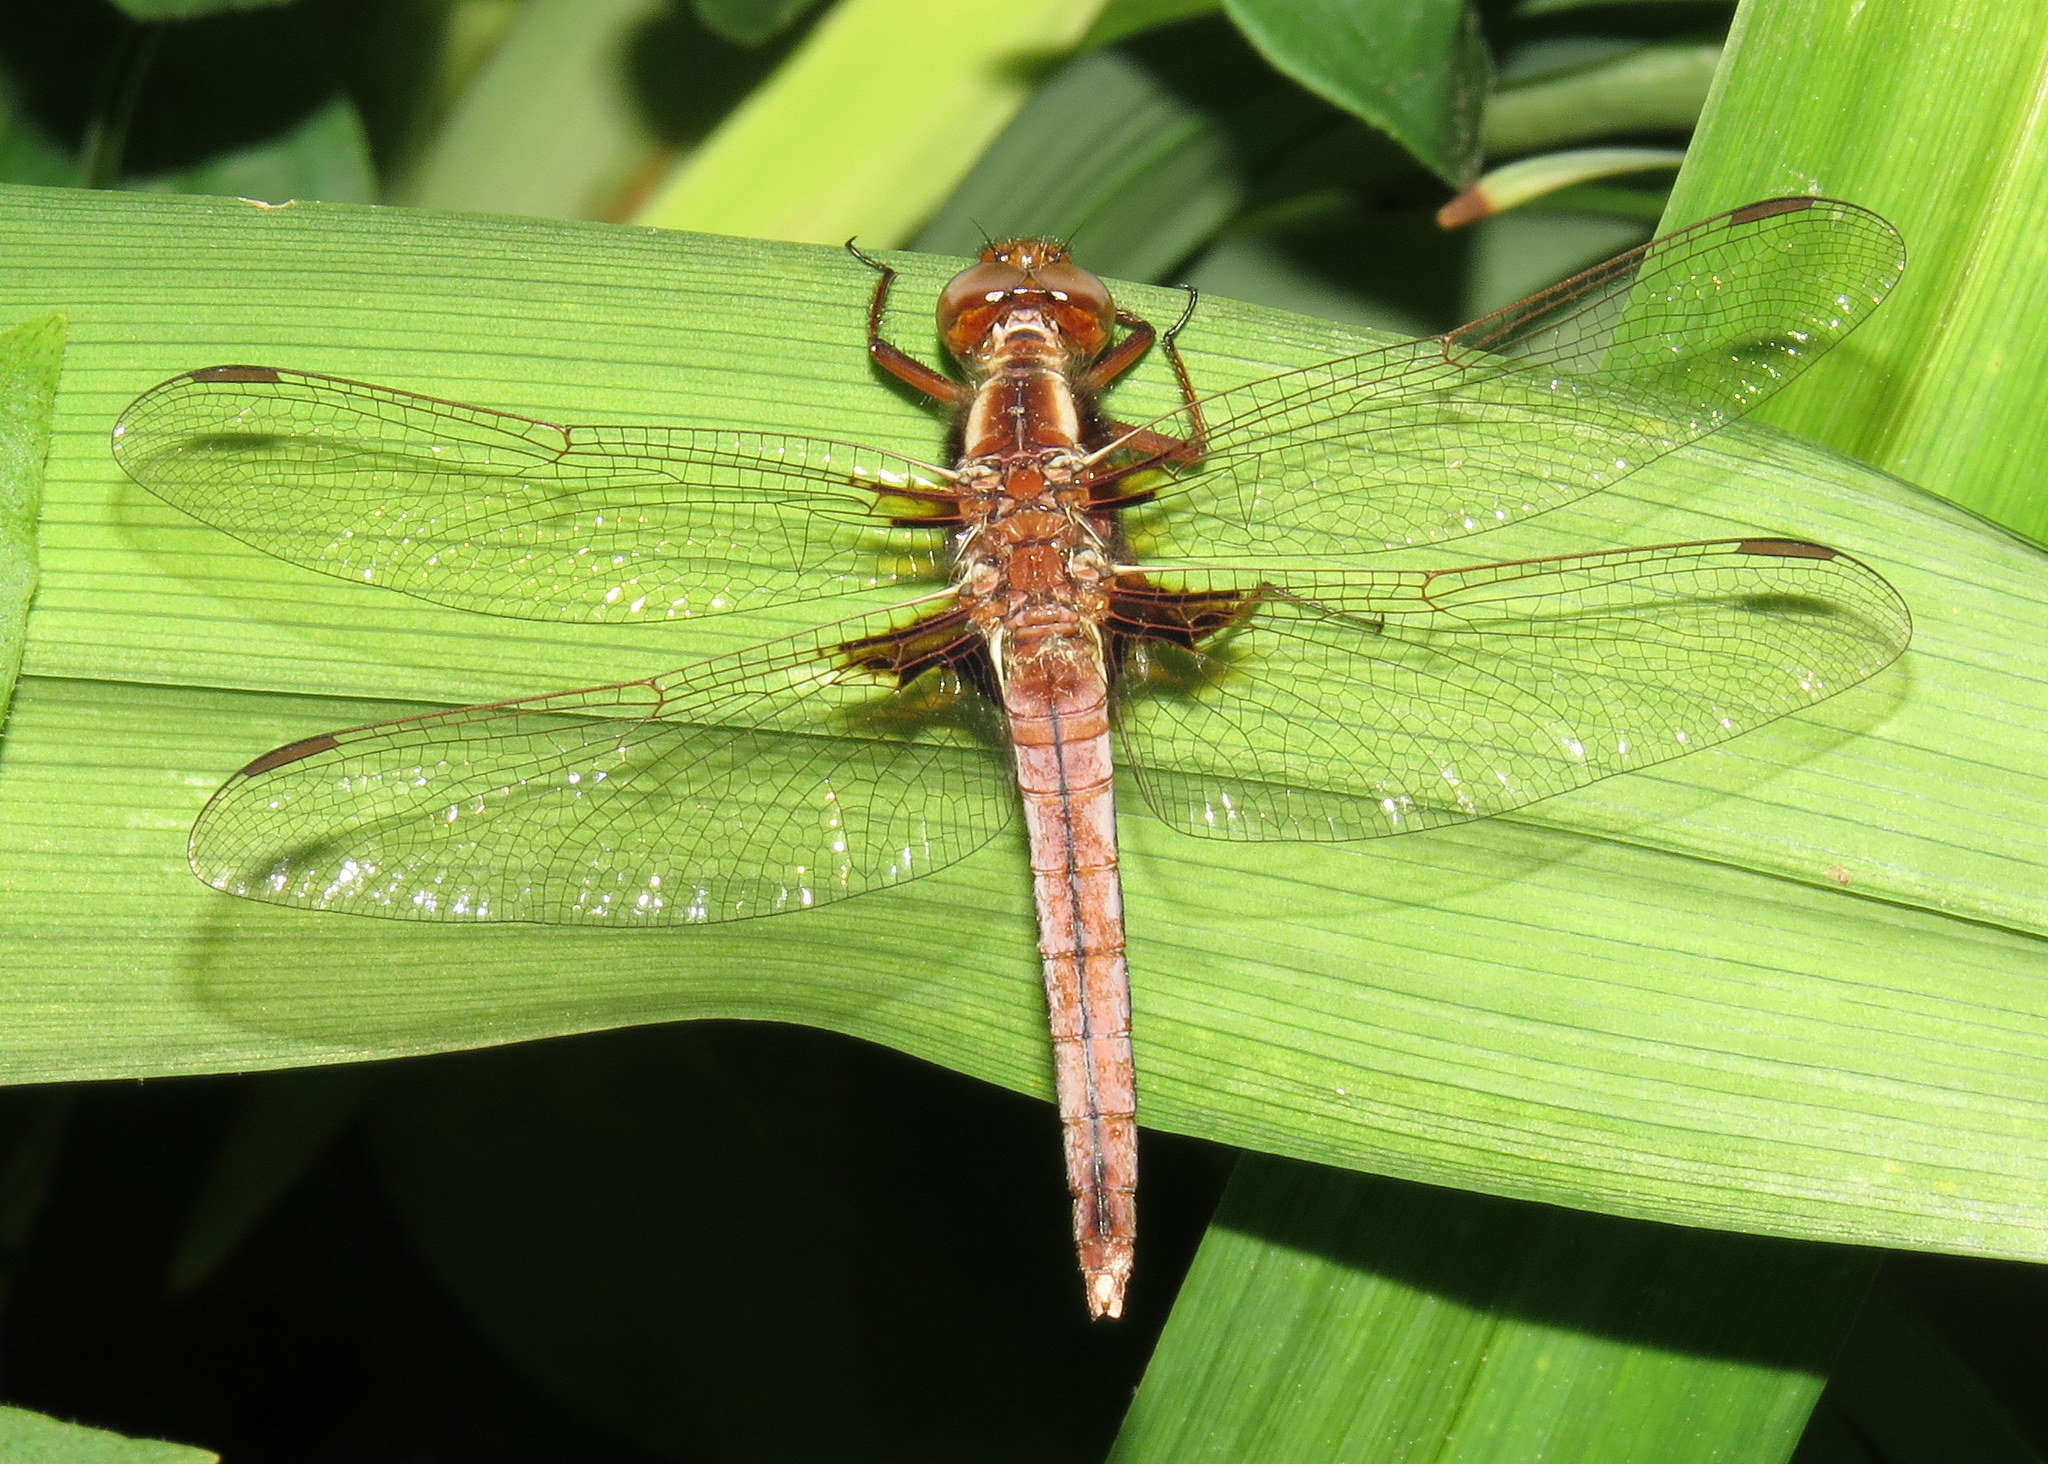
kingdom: Animalia
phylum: Arthropoda
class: Insecta
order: Odonata
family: Libellulidae
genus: Ladona
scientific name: Ladona exusta
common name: Libellule embrasée
